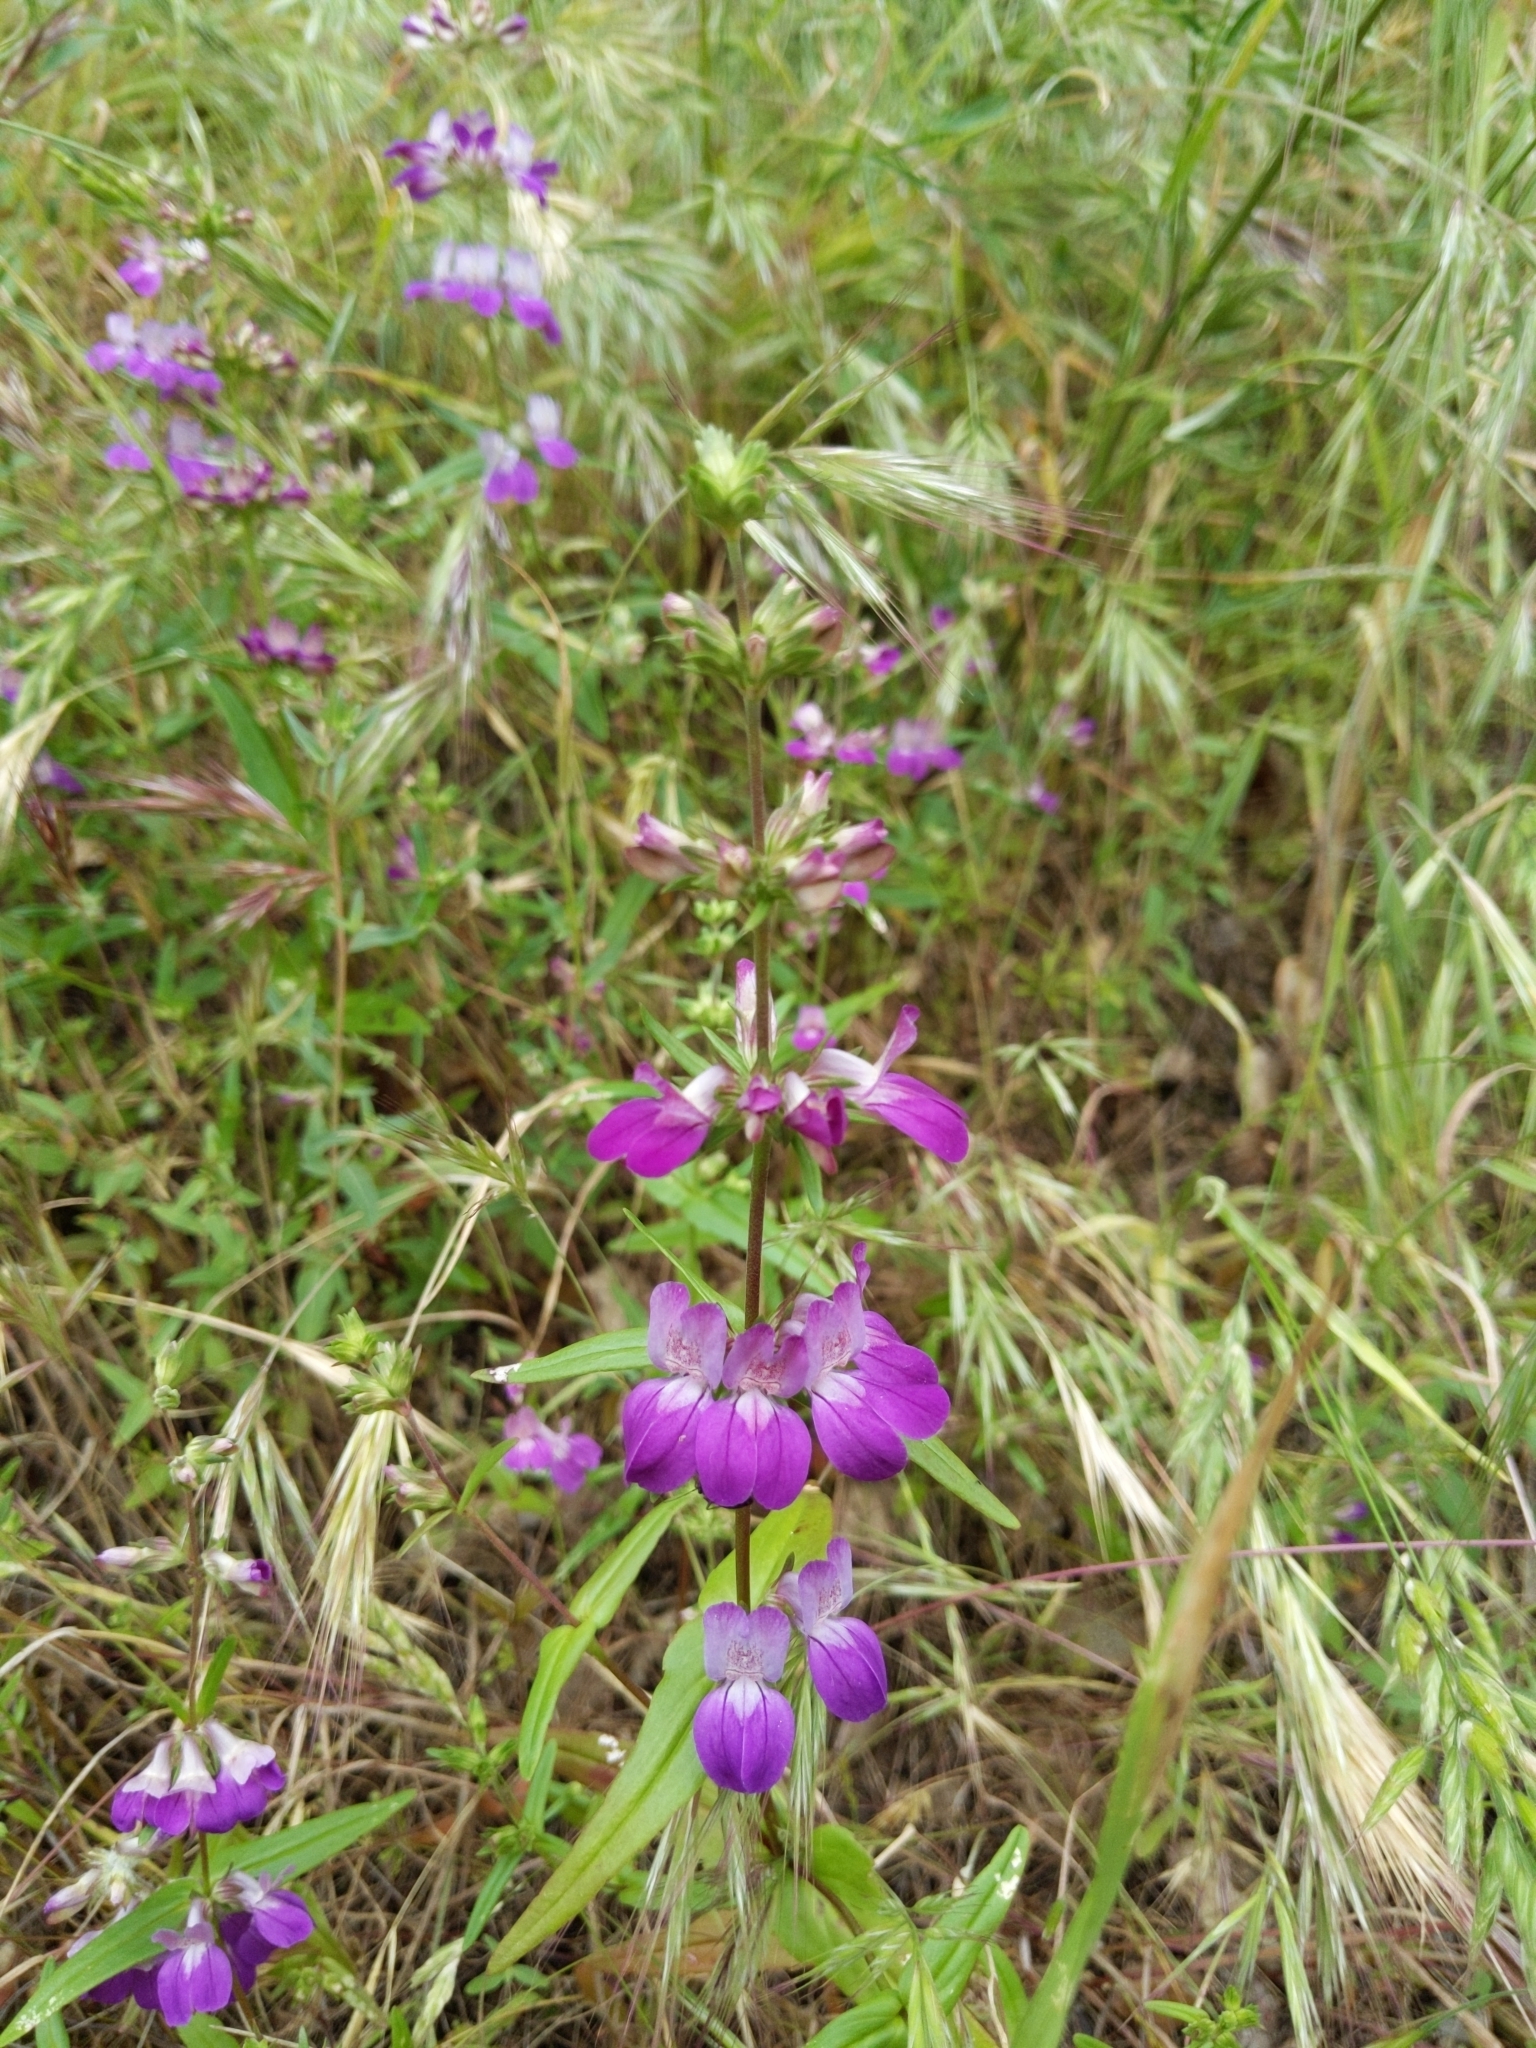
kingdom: Plantae
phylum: Tracheophyta
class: Magnoliopsida
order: Lamiales
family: Plantaginaceae
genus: Collinsia
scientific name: Collinsia heterophylla
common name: Chinese-houses
